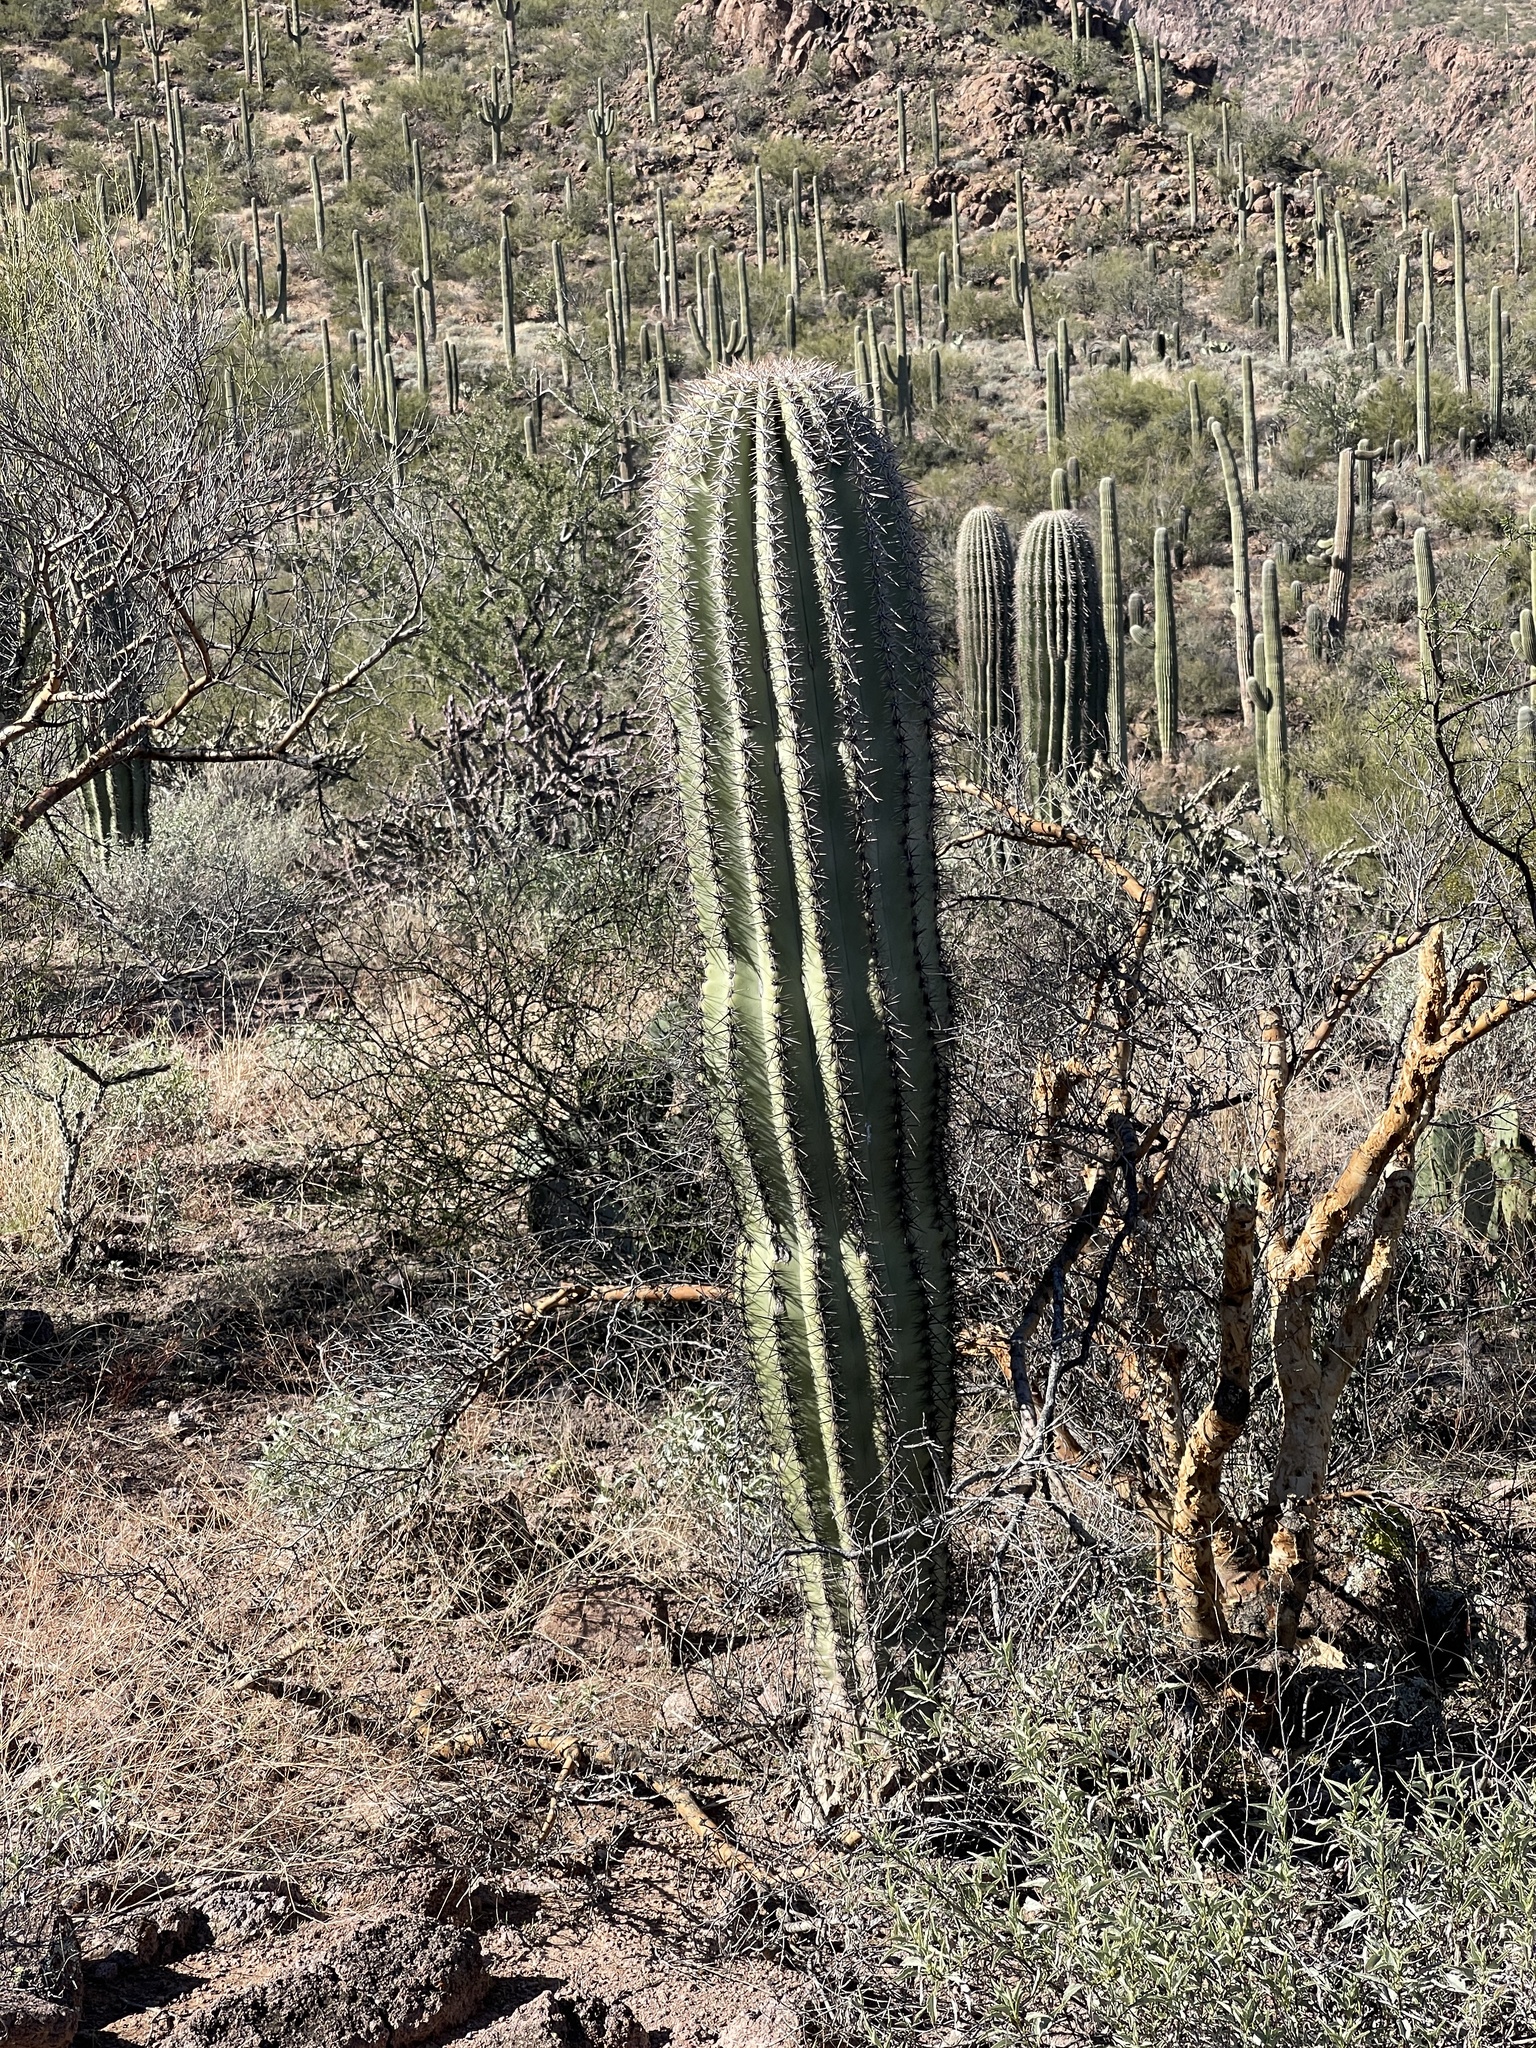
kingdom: Plantae
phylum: Tracheophyta
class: Magnoliopsida
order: Caryophyllales
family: Cactaceae
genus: Carnegiea
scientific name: Carnegiea gigantea
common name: Saguaro
